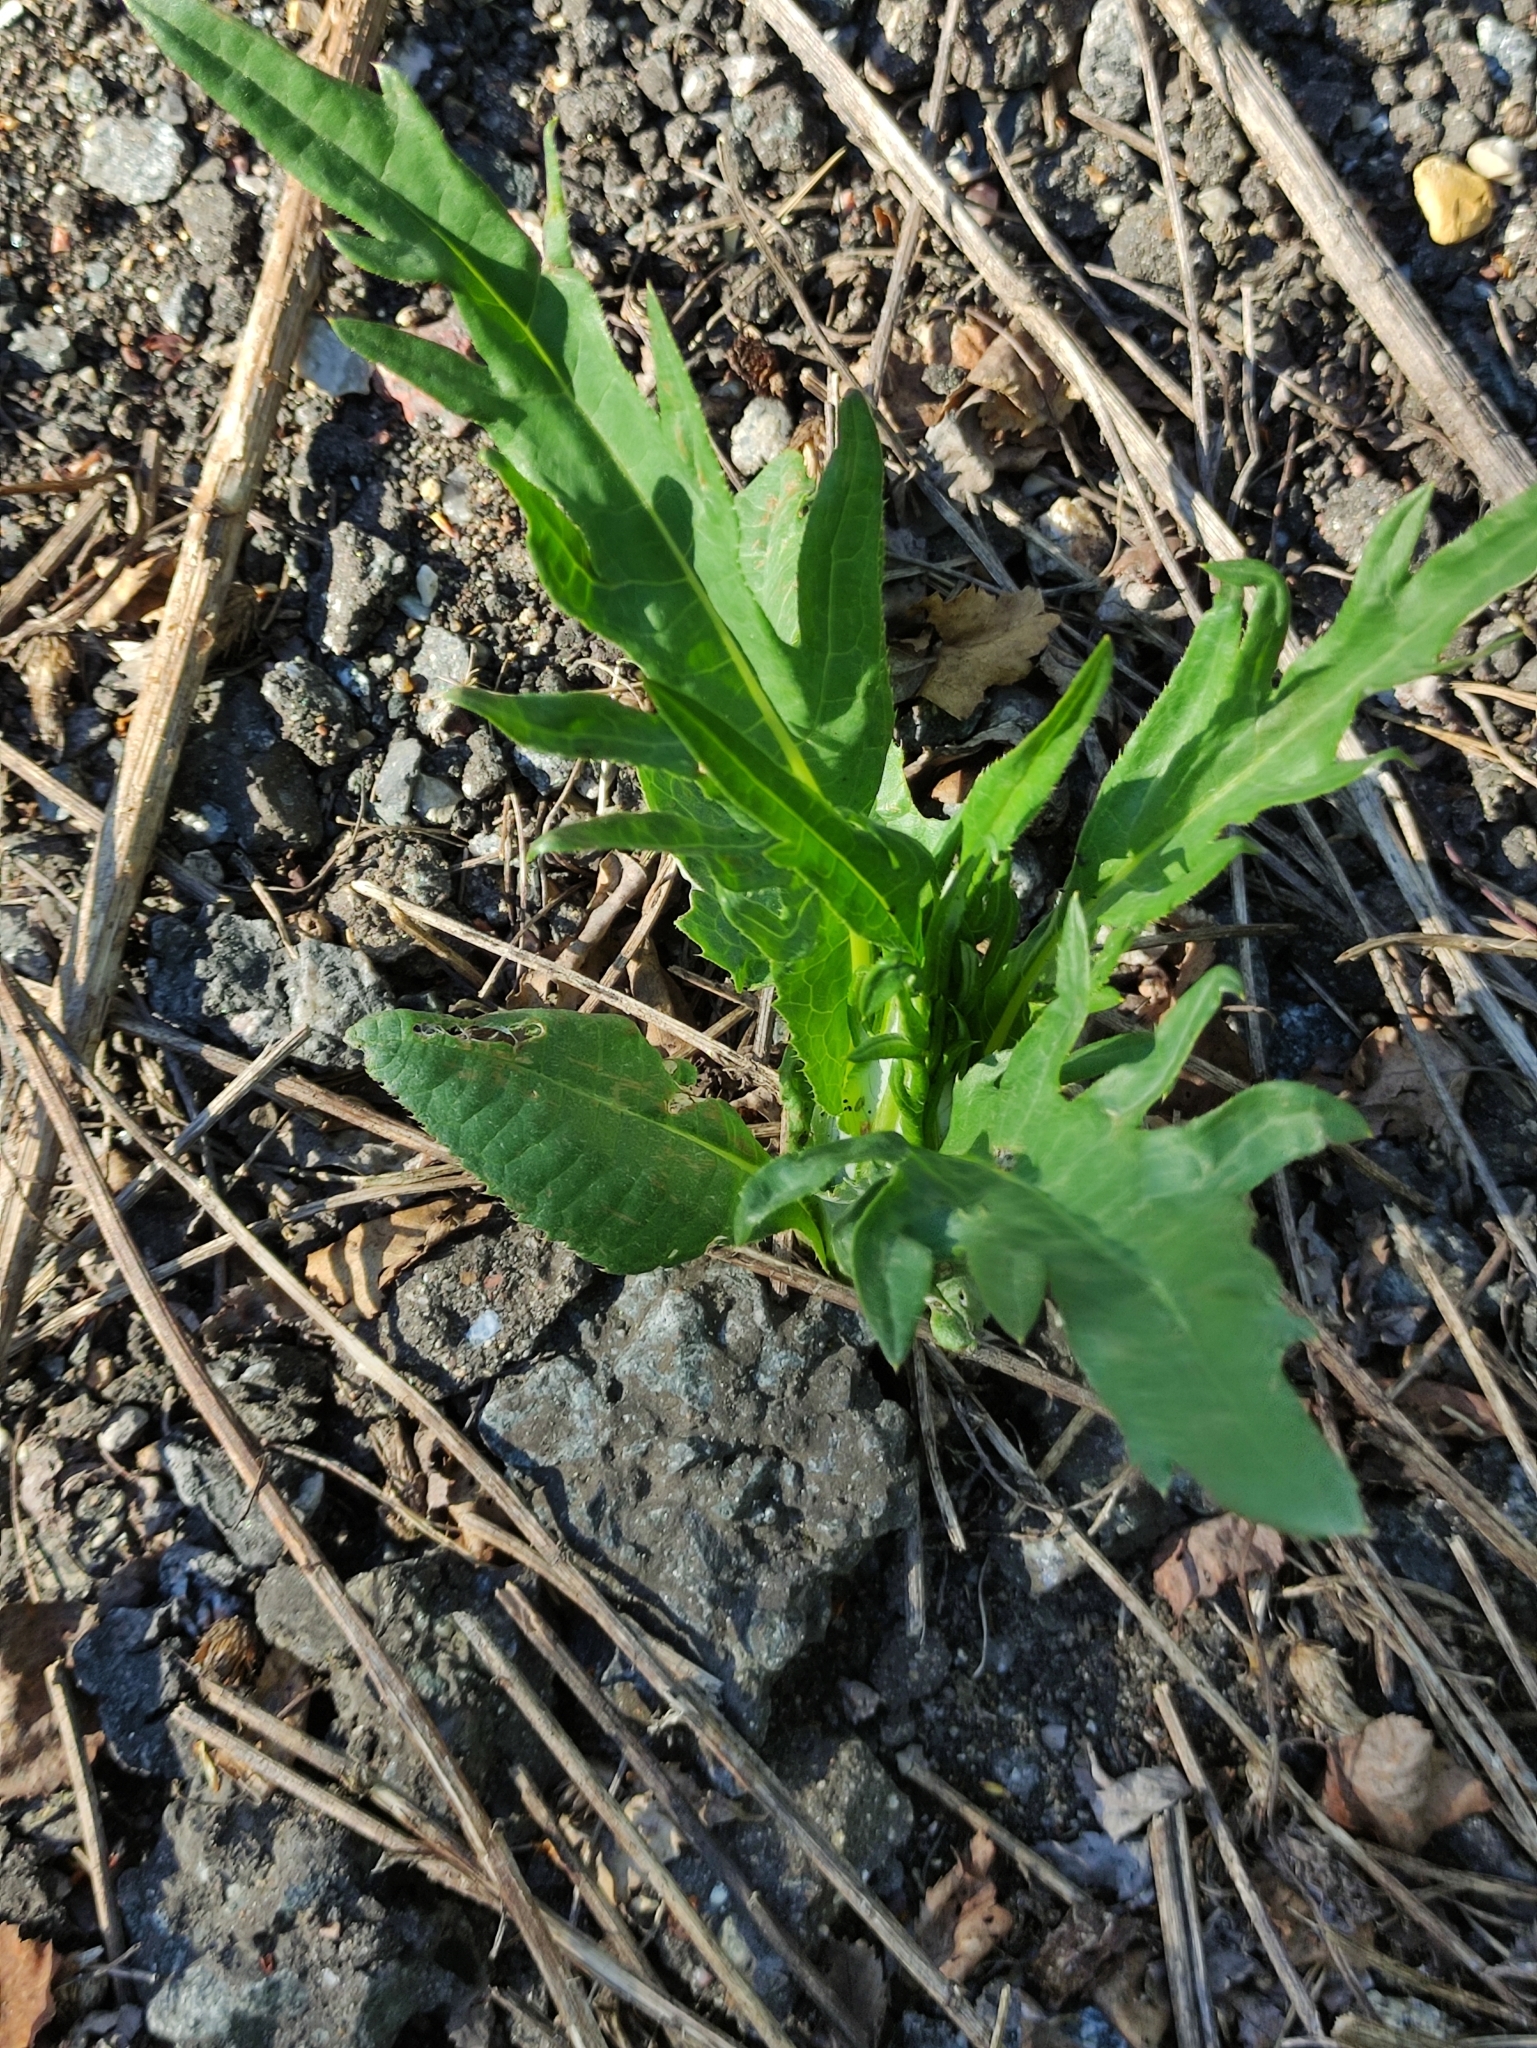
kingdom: Plantae
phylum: Tracheophyta
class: Magnoliopsida
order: Asterales
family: Asteraceae
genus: Cirsium
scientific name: Cirsium heterophyllum
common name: Melancholy thistle
